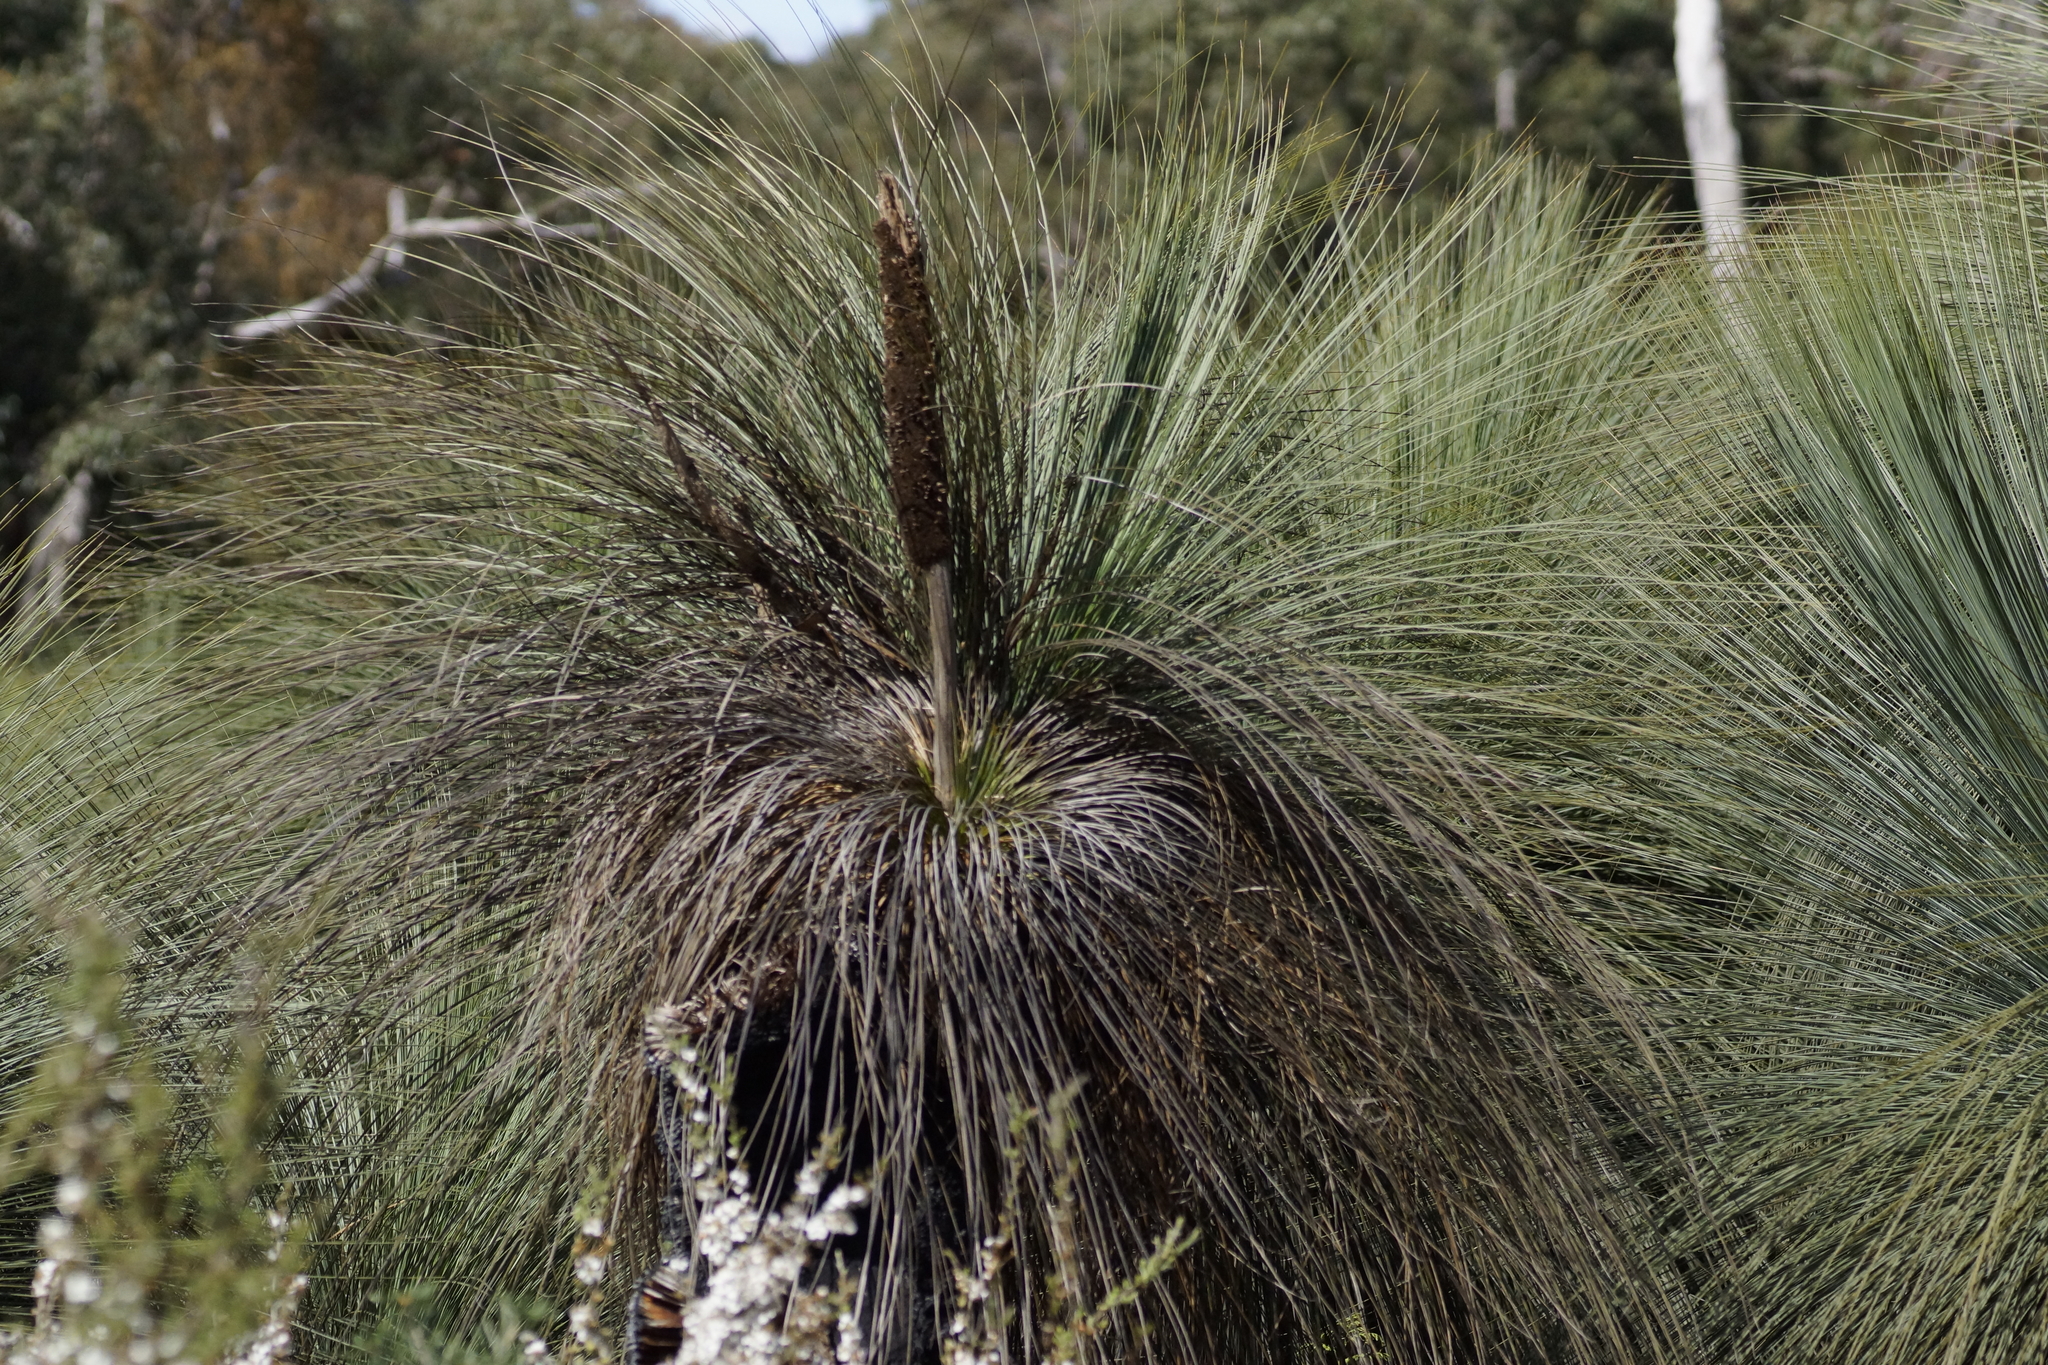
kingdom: Plantae
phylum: Tracheophyta
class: Liliopsida
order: Asparagales
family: Asphodelaceae
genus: Xanthorrhoea
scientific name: Xanthorrhoea australis
